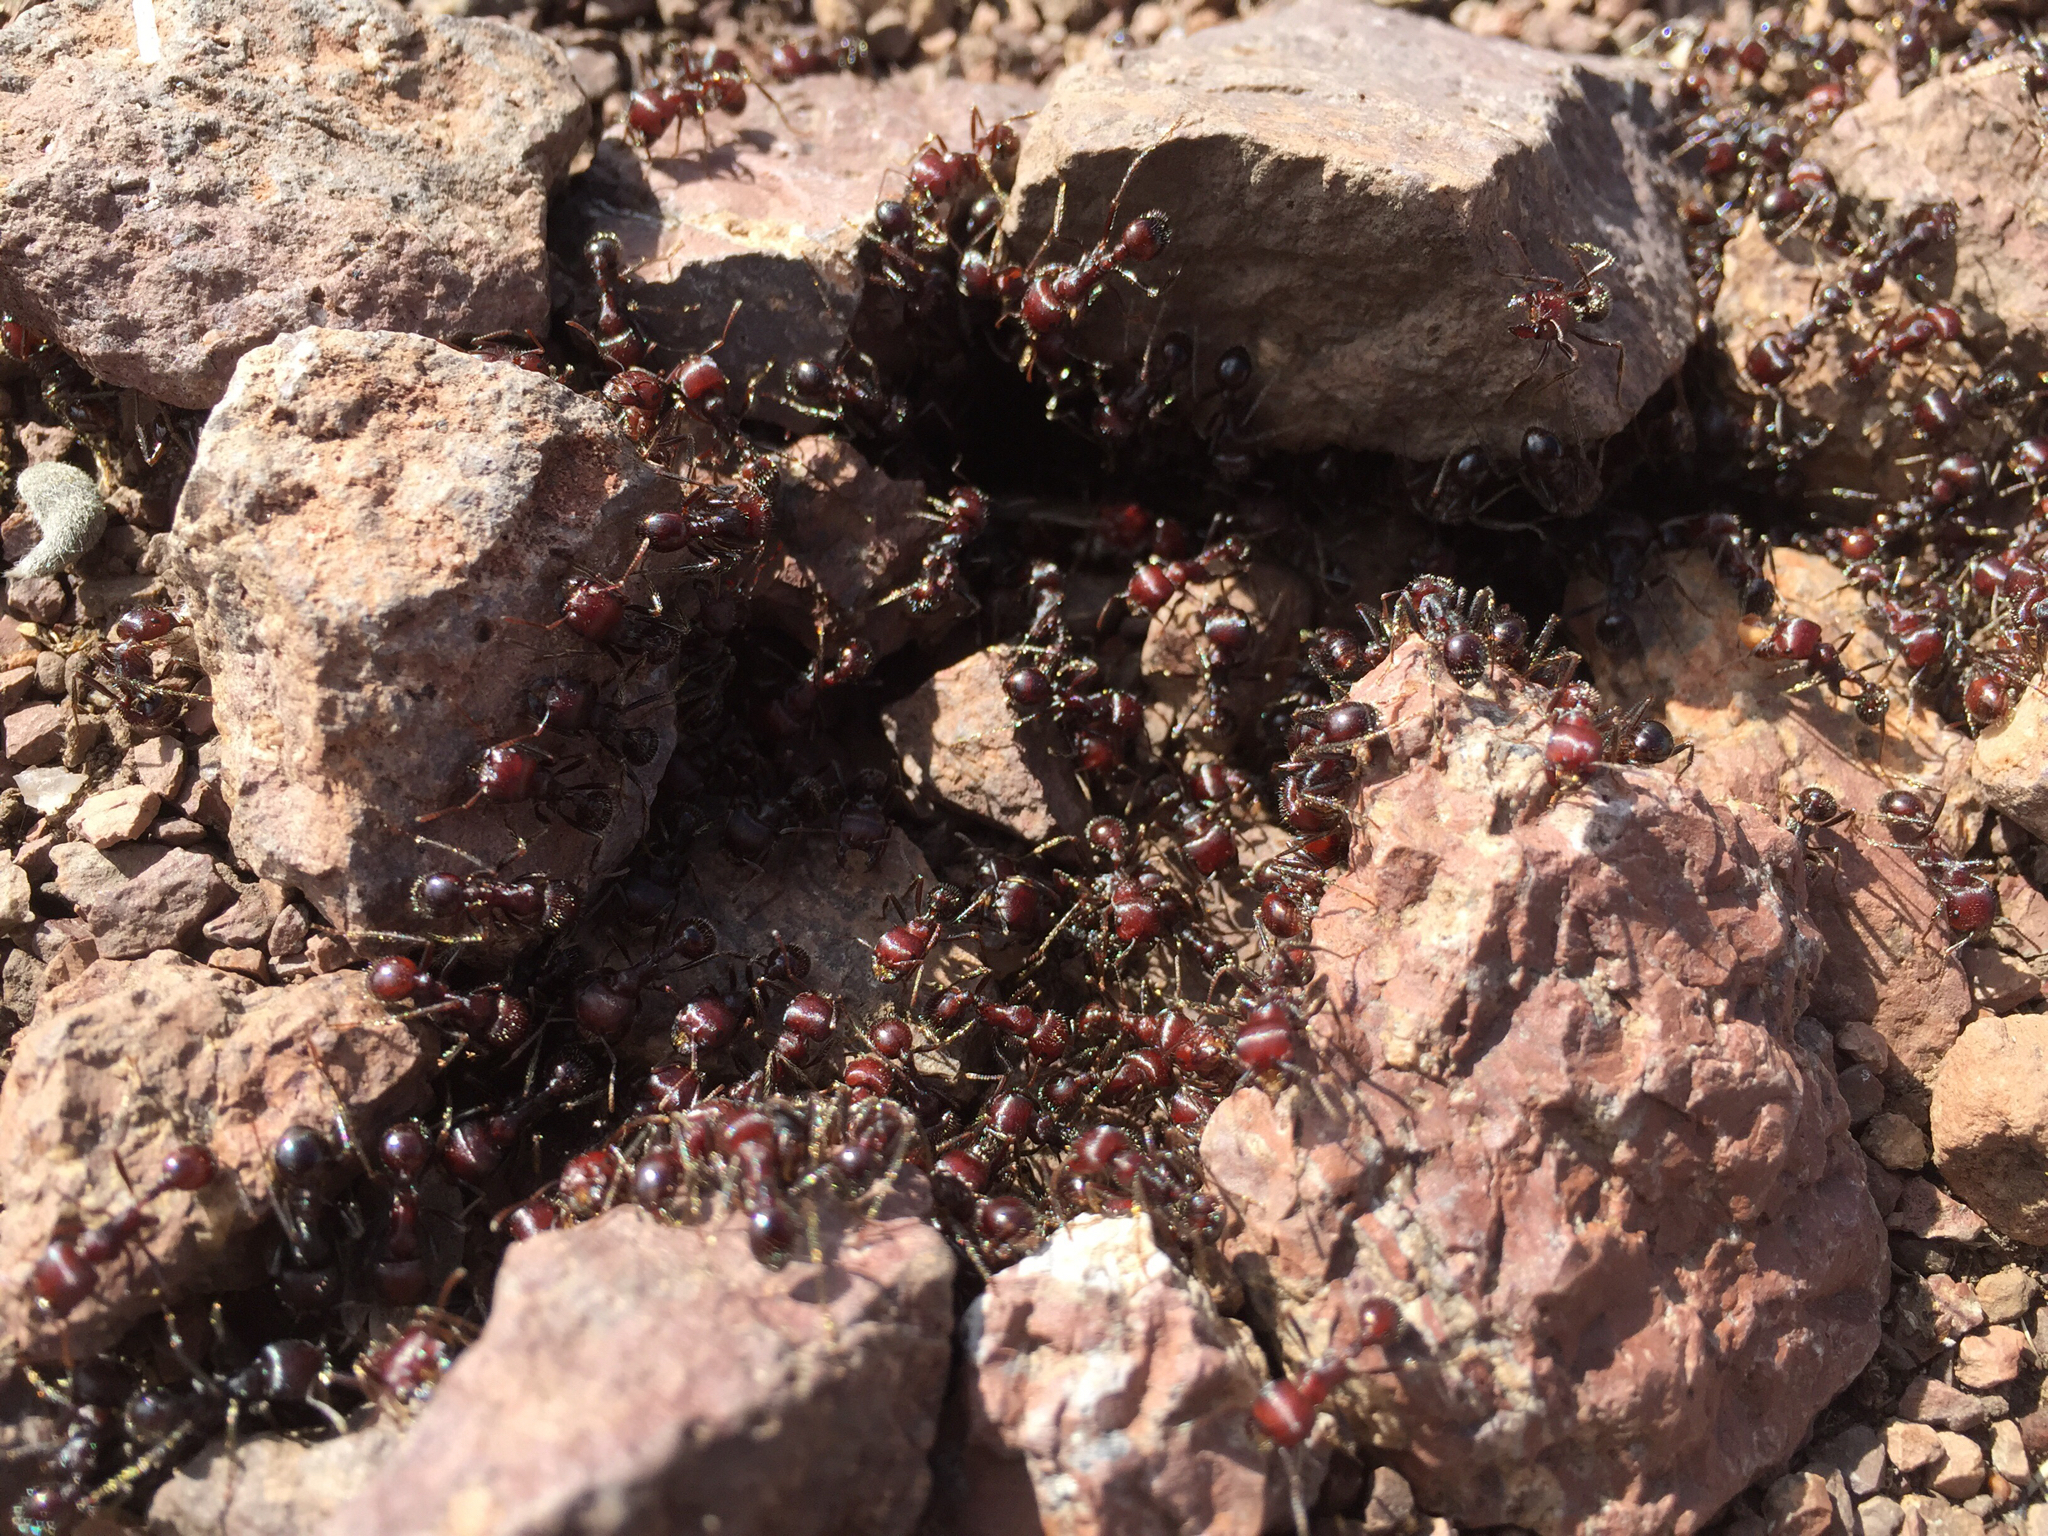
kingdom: Animalia
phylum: Arthropoda
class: Insecta
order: Hymenoptera
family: Formicidae
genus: Pogonomyrmex
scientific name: Pogonomyrmex
